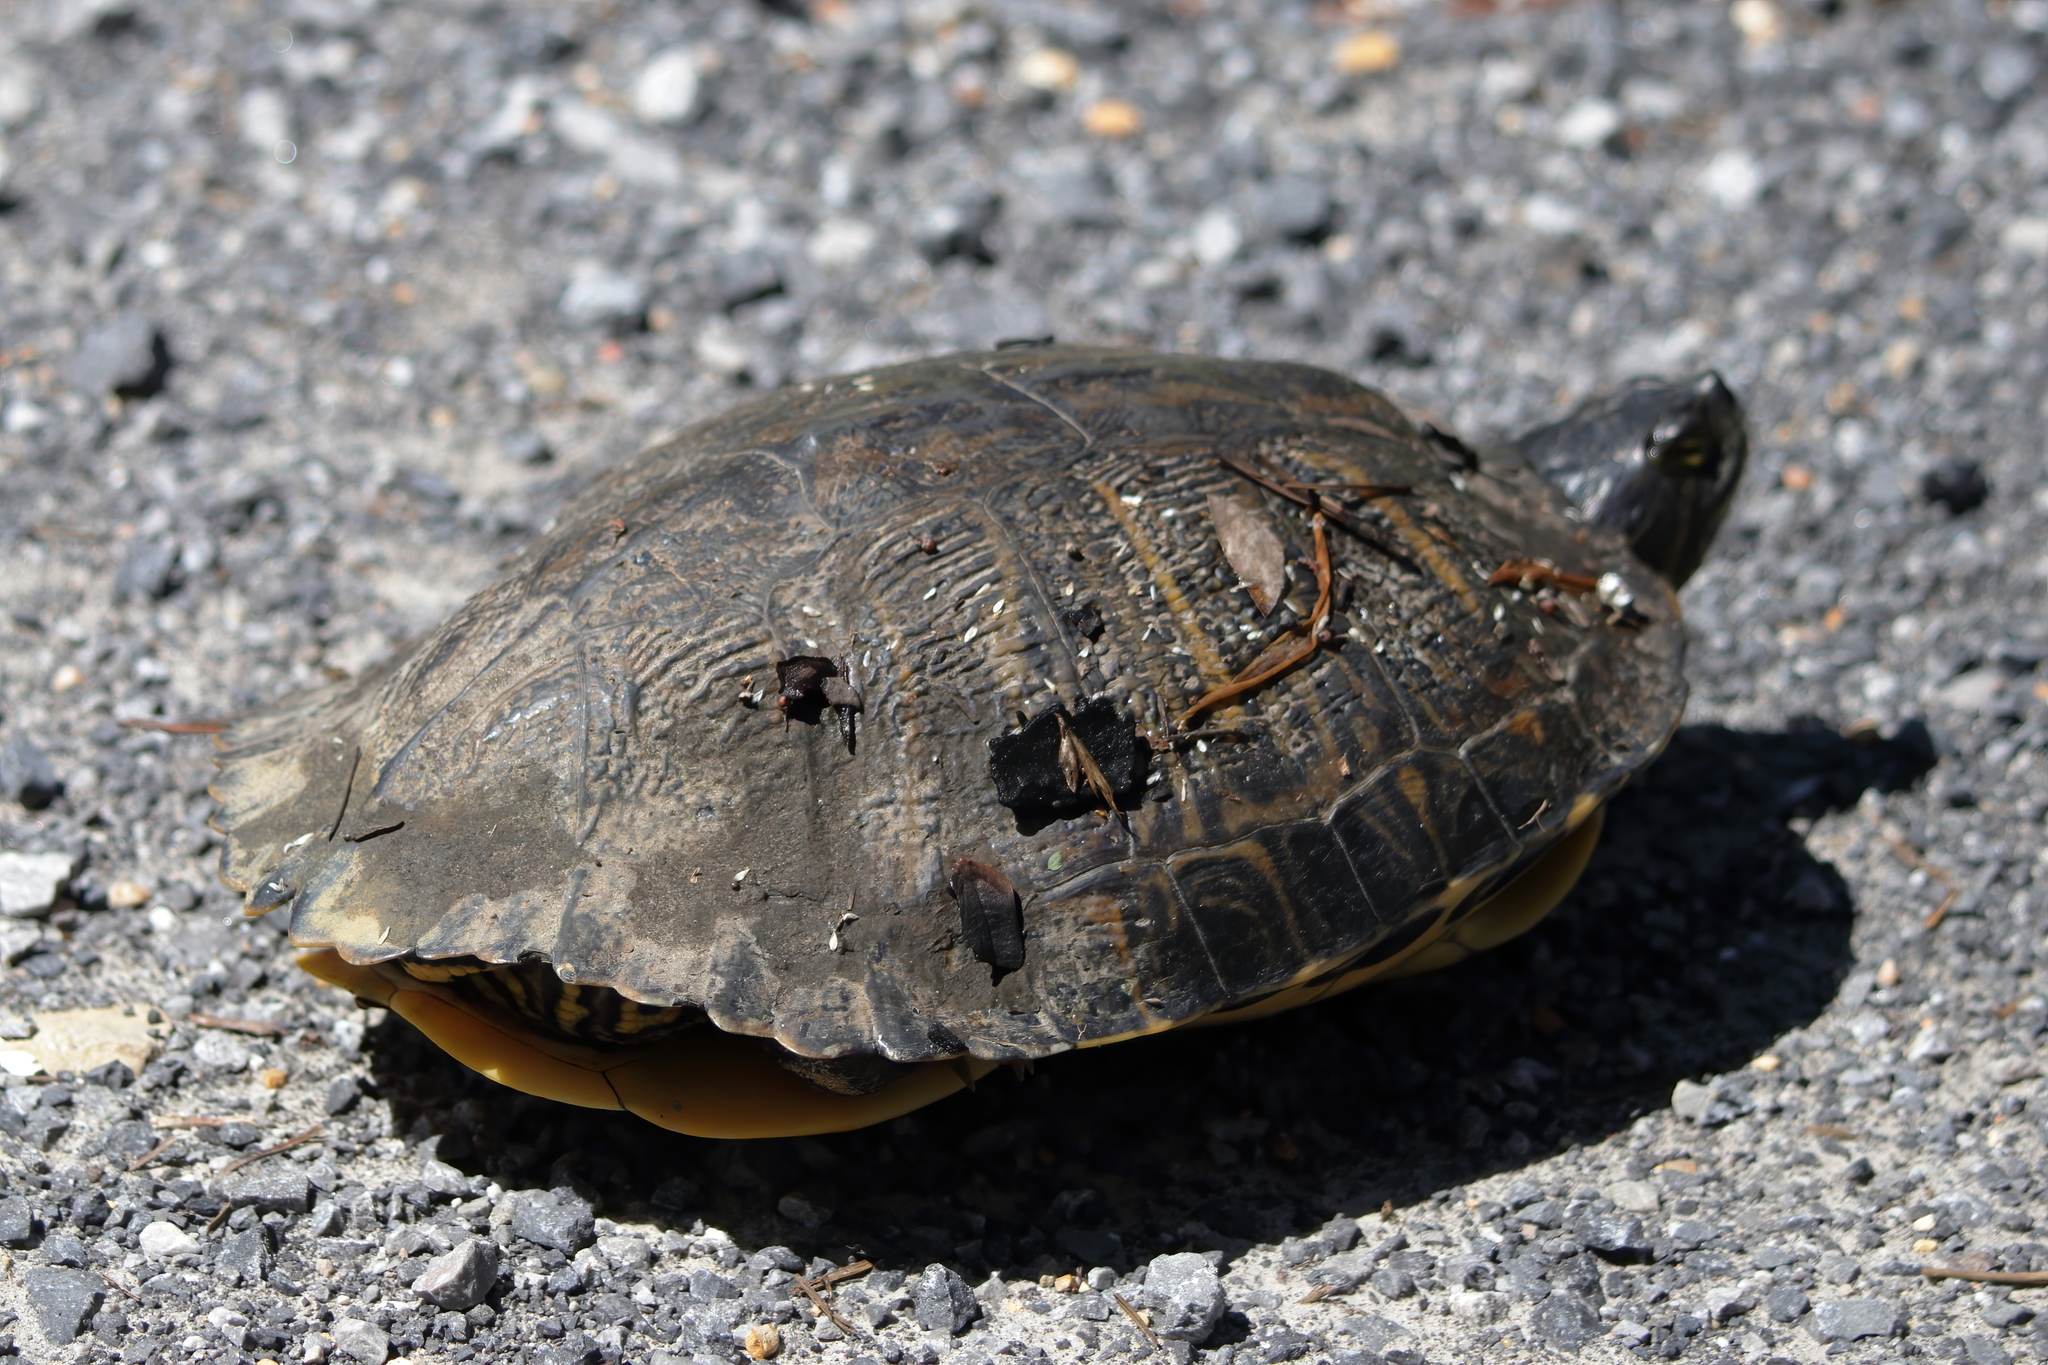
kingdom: Animalia
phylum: Chordata
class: Testudines
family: Emydidae
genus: Trachemys
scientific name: Trachemys scripta
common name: Slider
